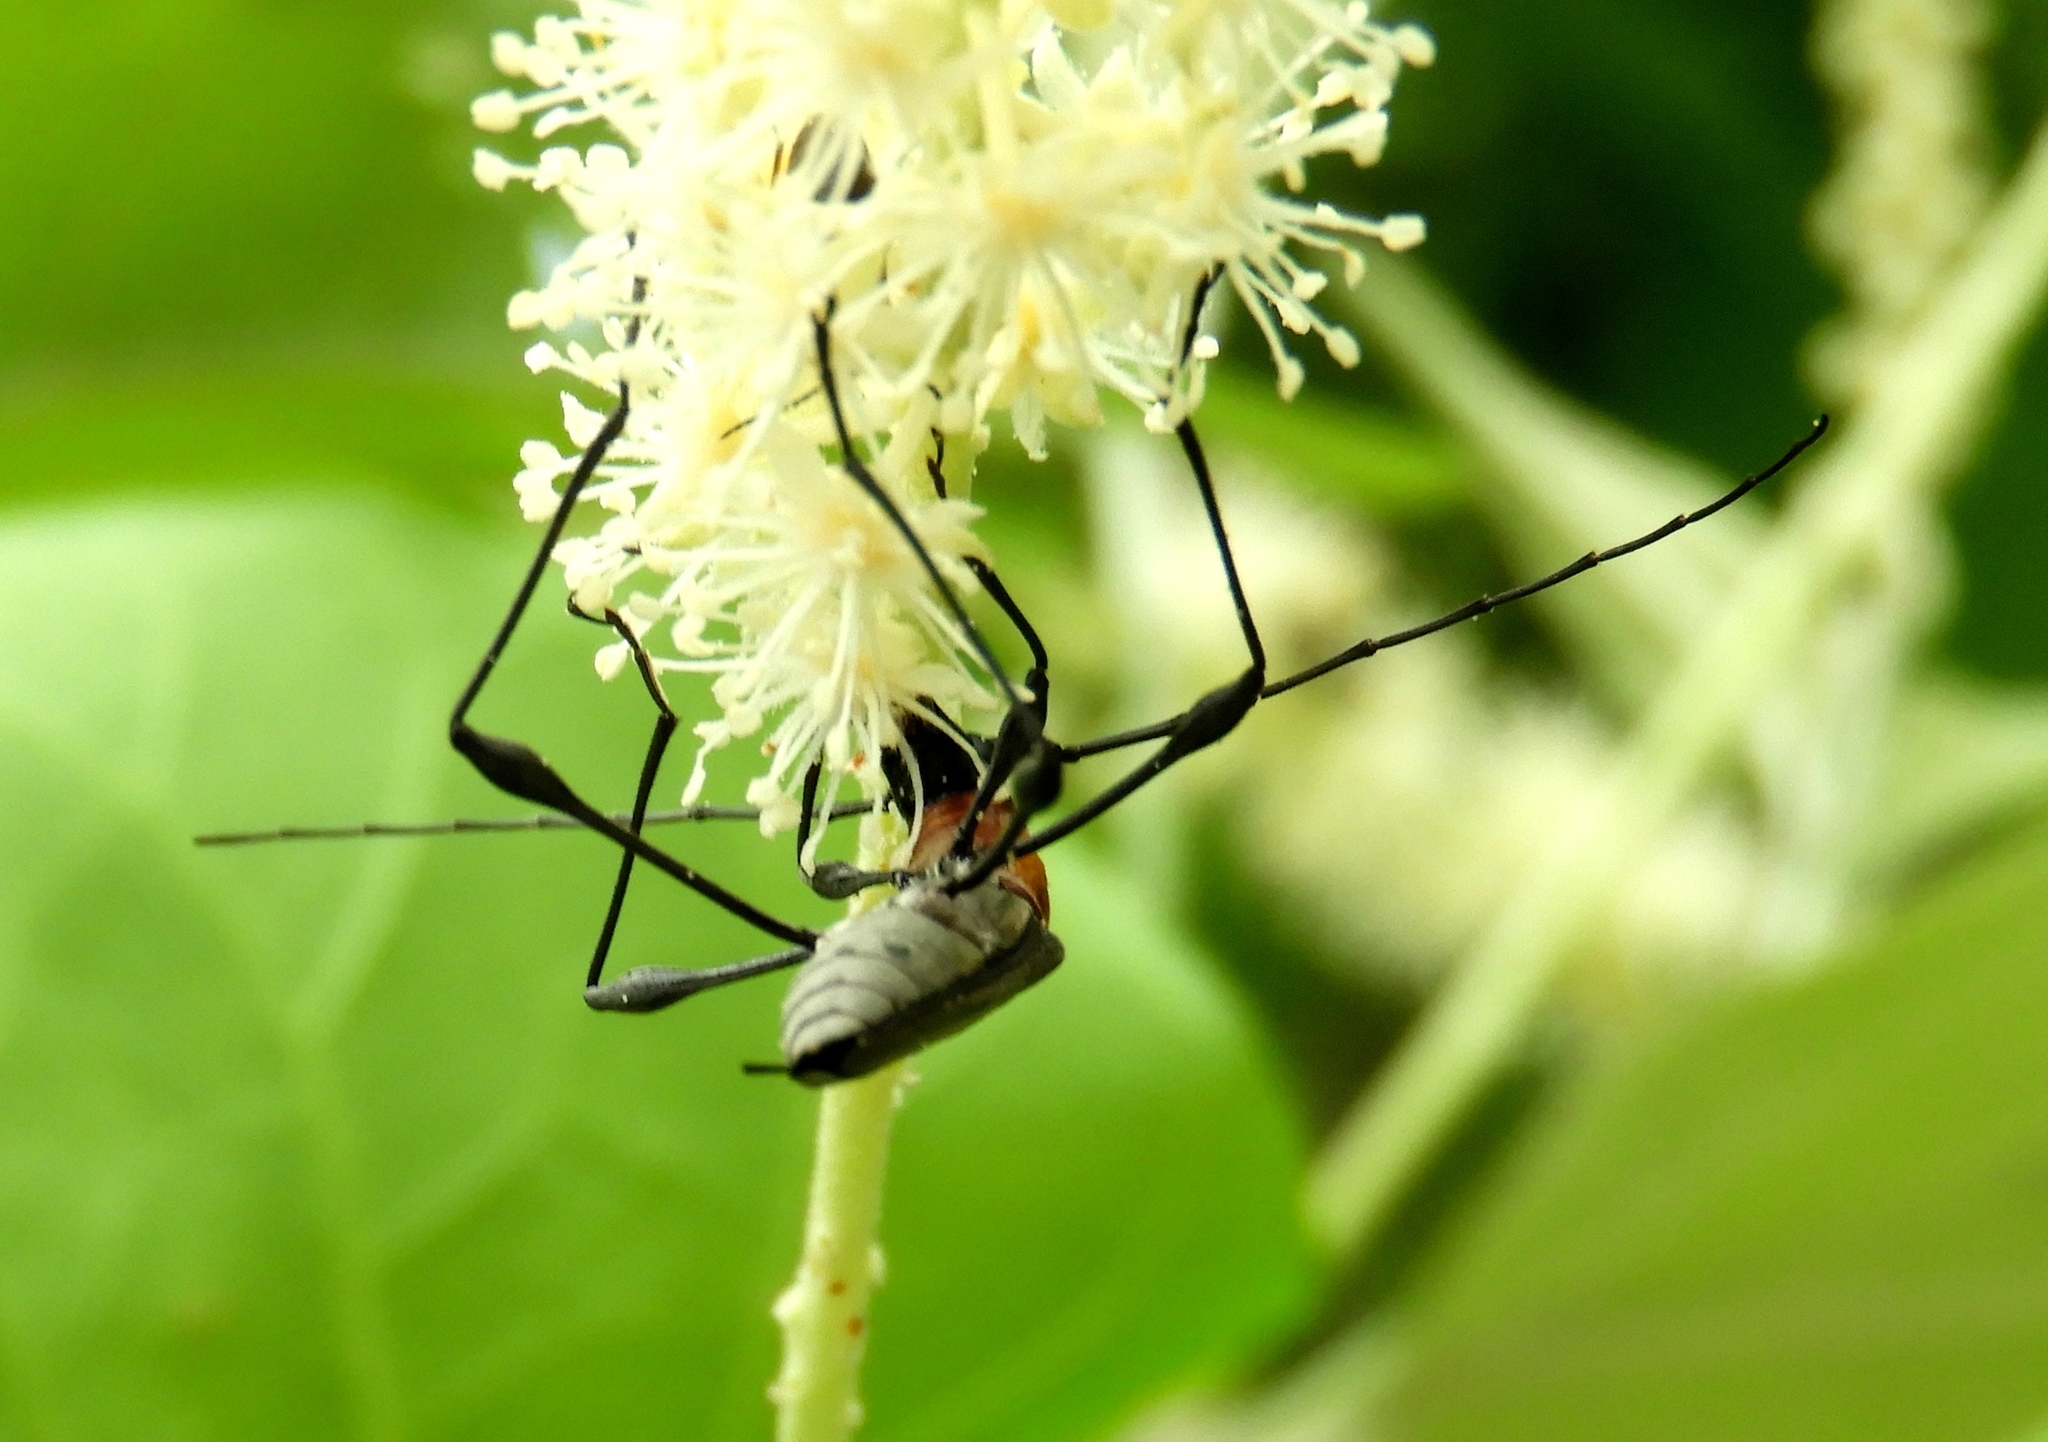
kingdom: Animalia
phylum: Arthropoda
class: Insecta
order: Coleoptera
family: Cerambycidae
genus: Rhopalophora
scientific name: Rhopalophora
